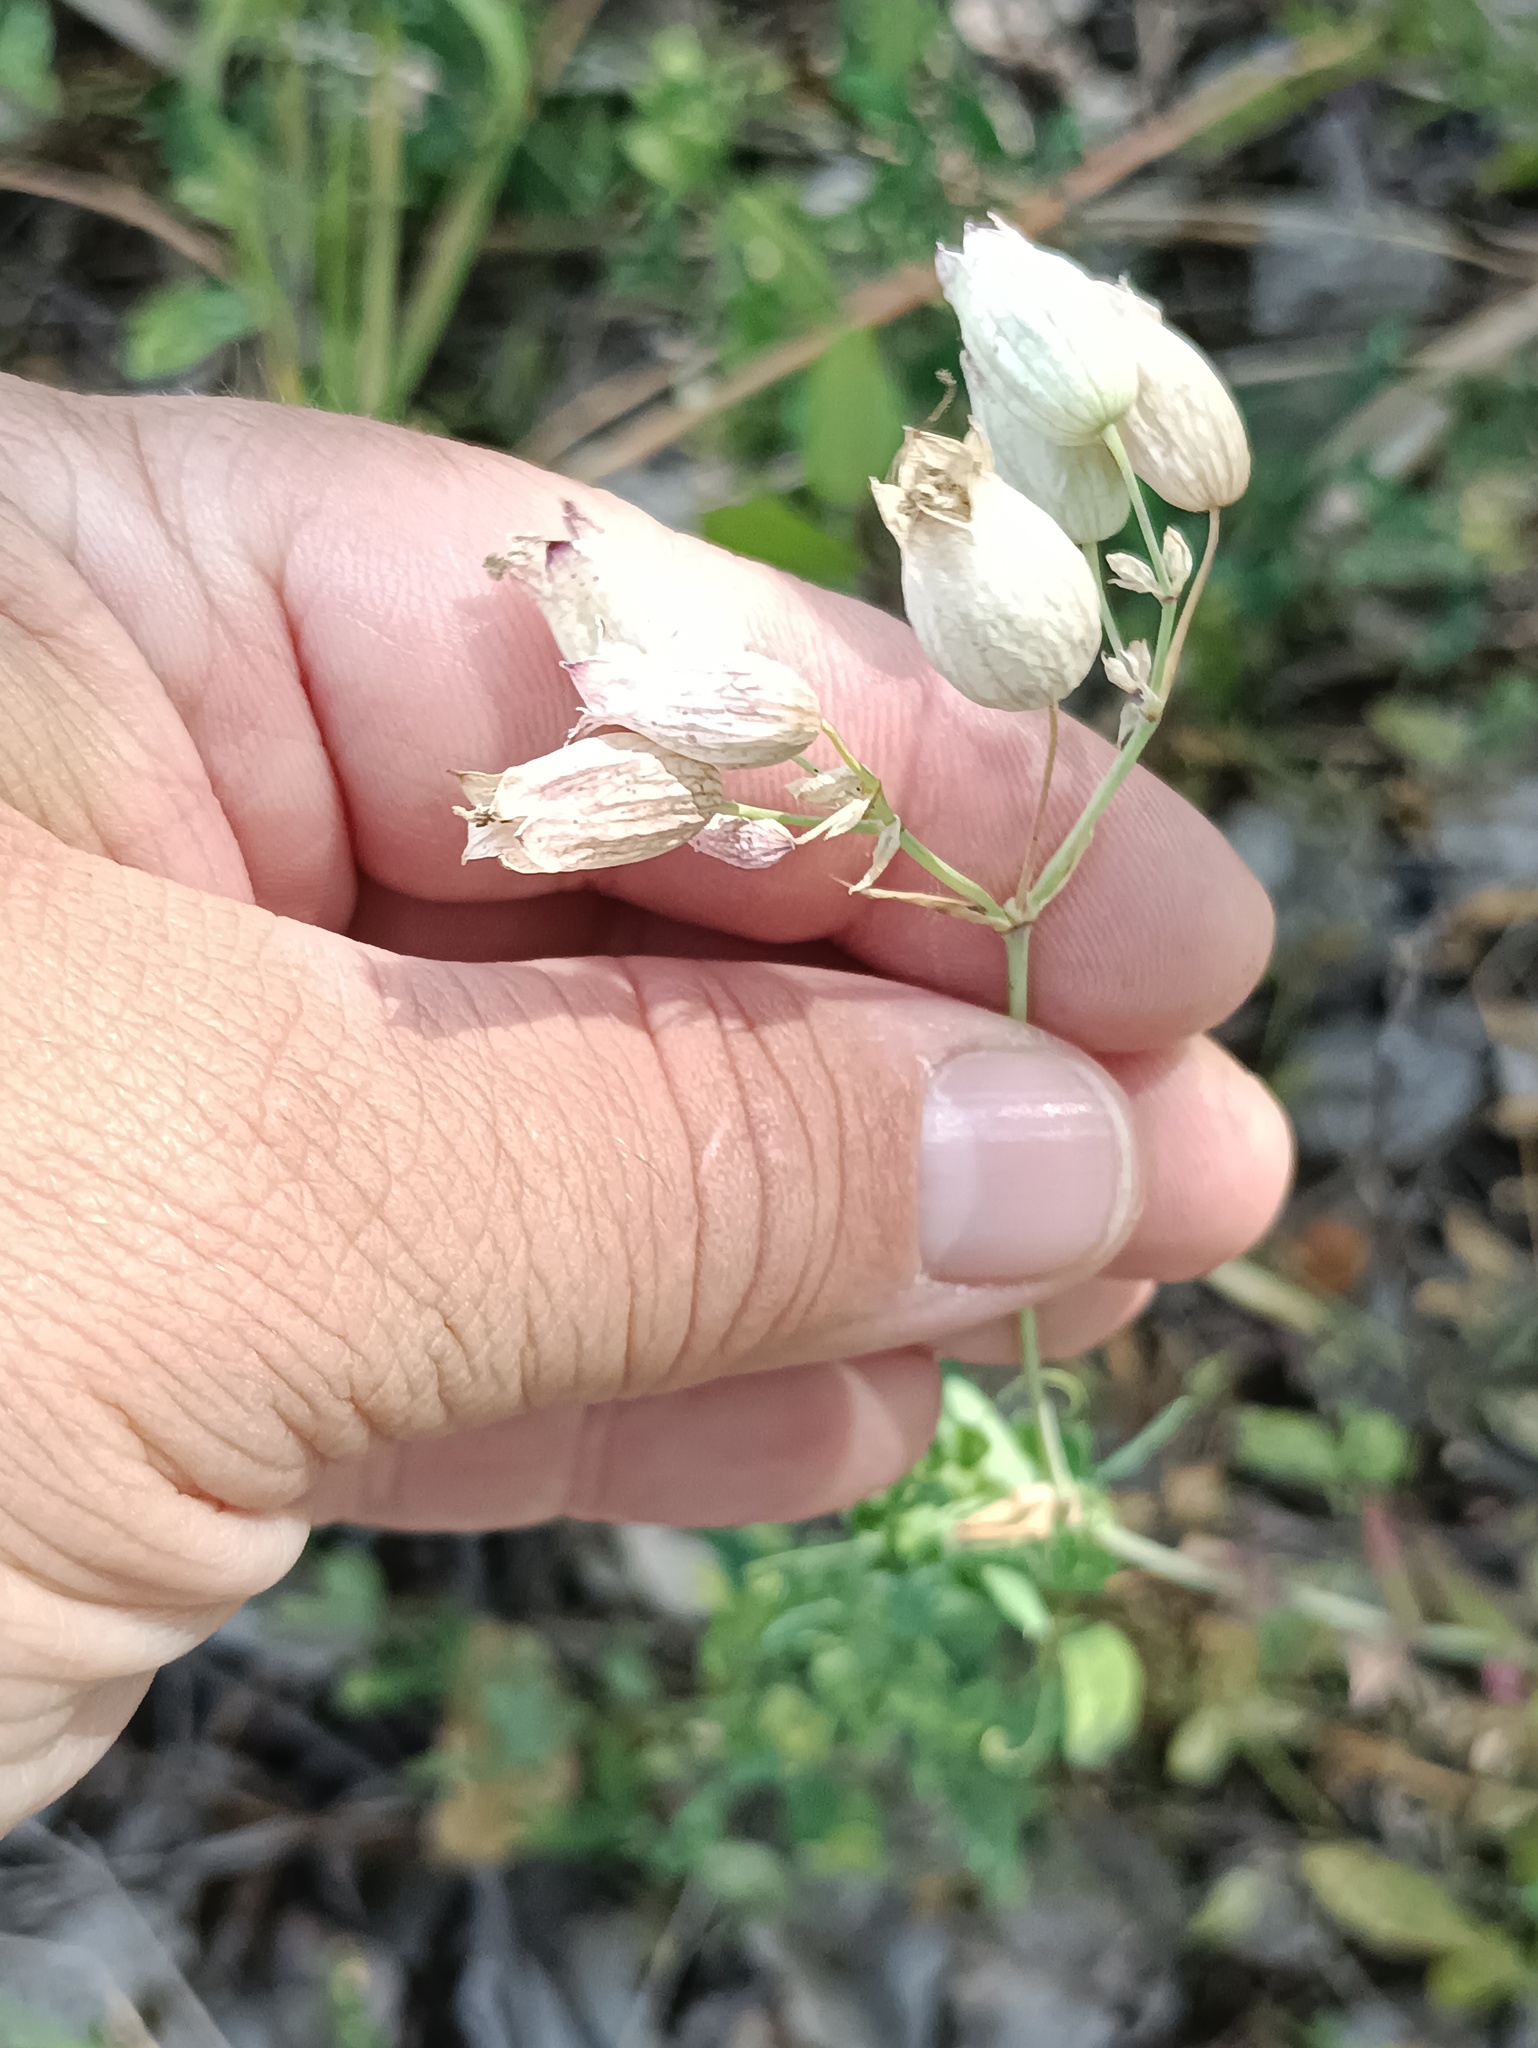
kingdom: Plantae
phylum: Tracheophyta
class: Magnoliopsida
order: Caryophyllales
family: Caryophyllaceae
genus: Silene
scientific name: Silene vulgaris
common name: Bladder campion
